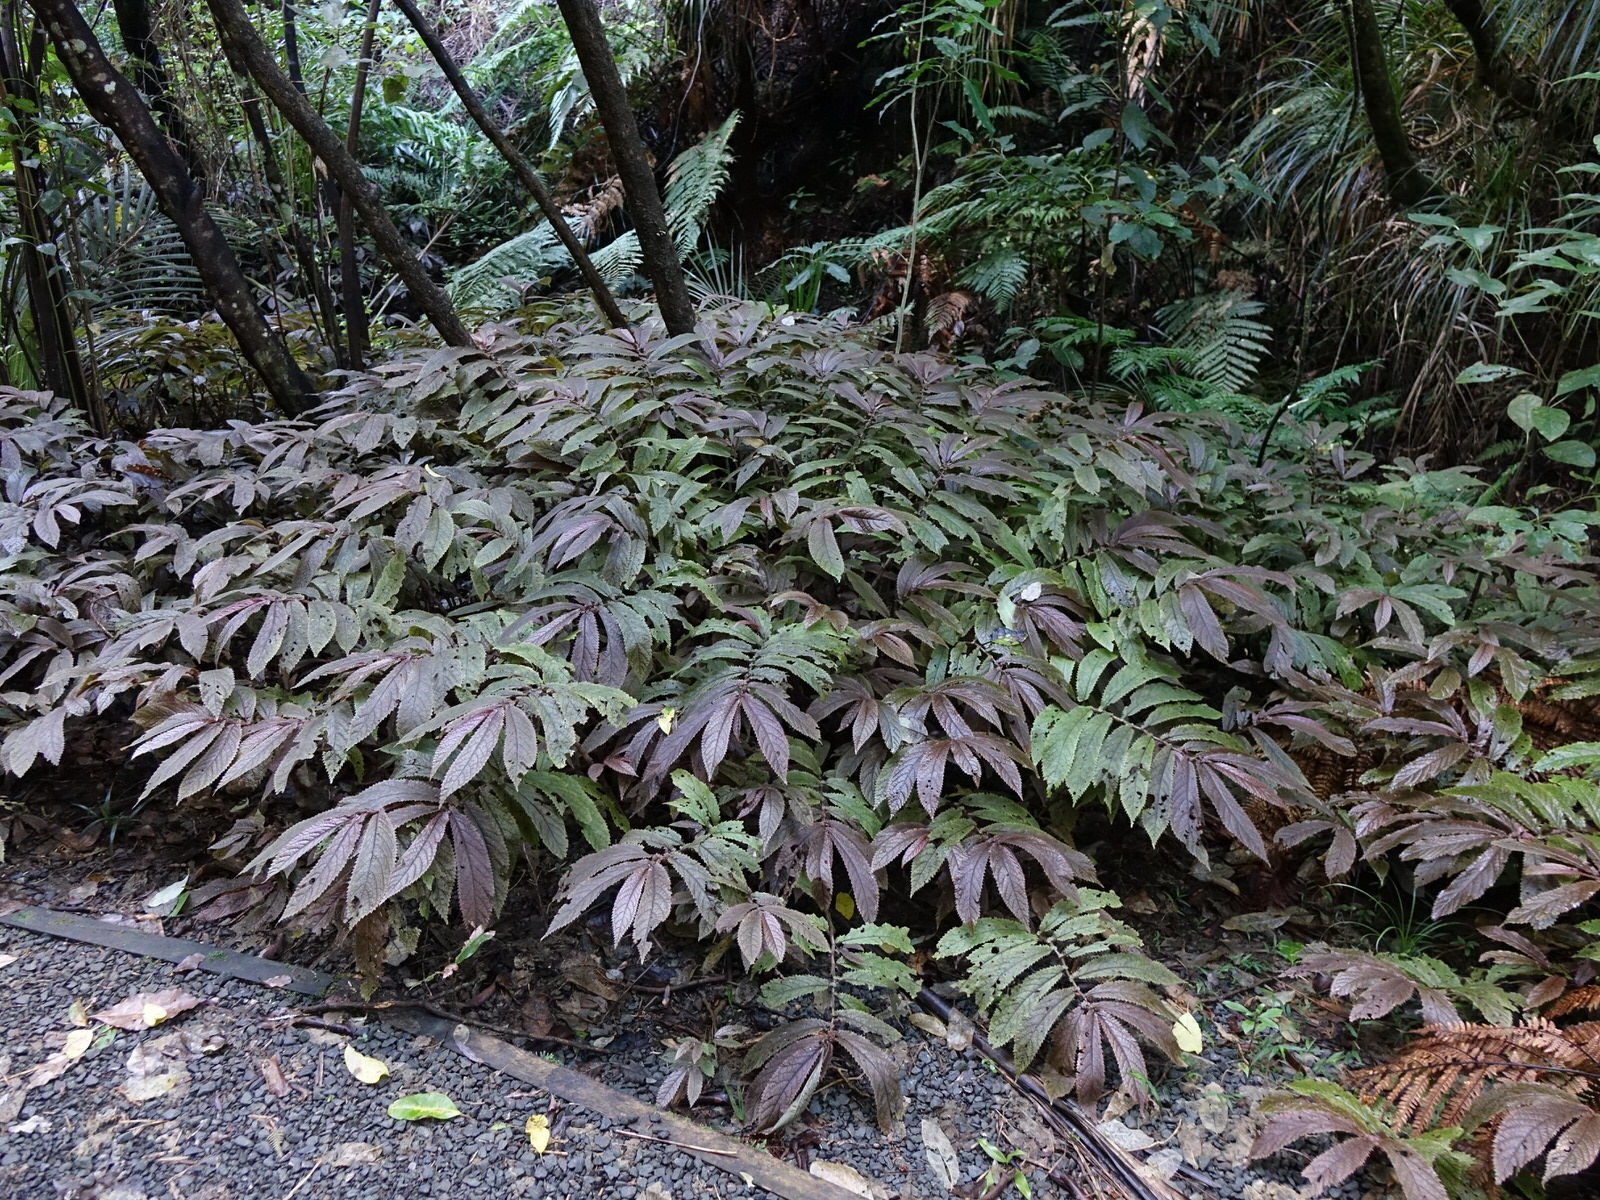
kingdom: Plantae
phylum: Tracheophyta
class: Magnoliopsida
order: Rosales
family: Urticaceae
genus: Elatostema
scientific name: Elatostema rugosum
